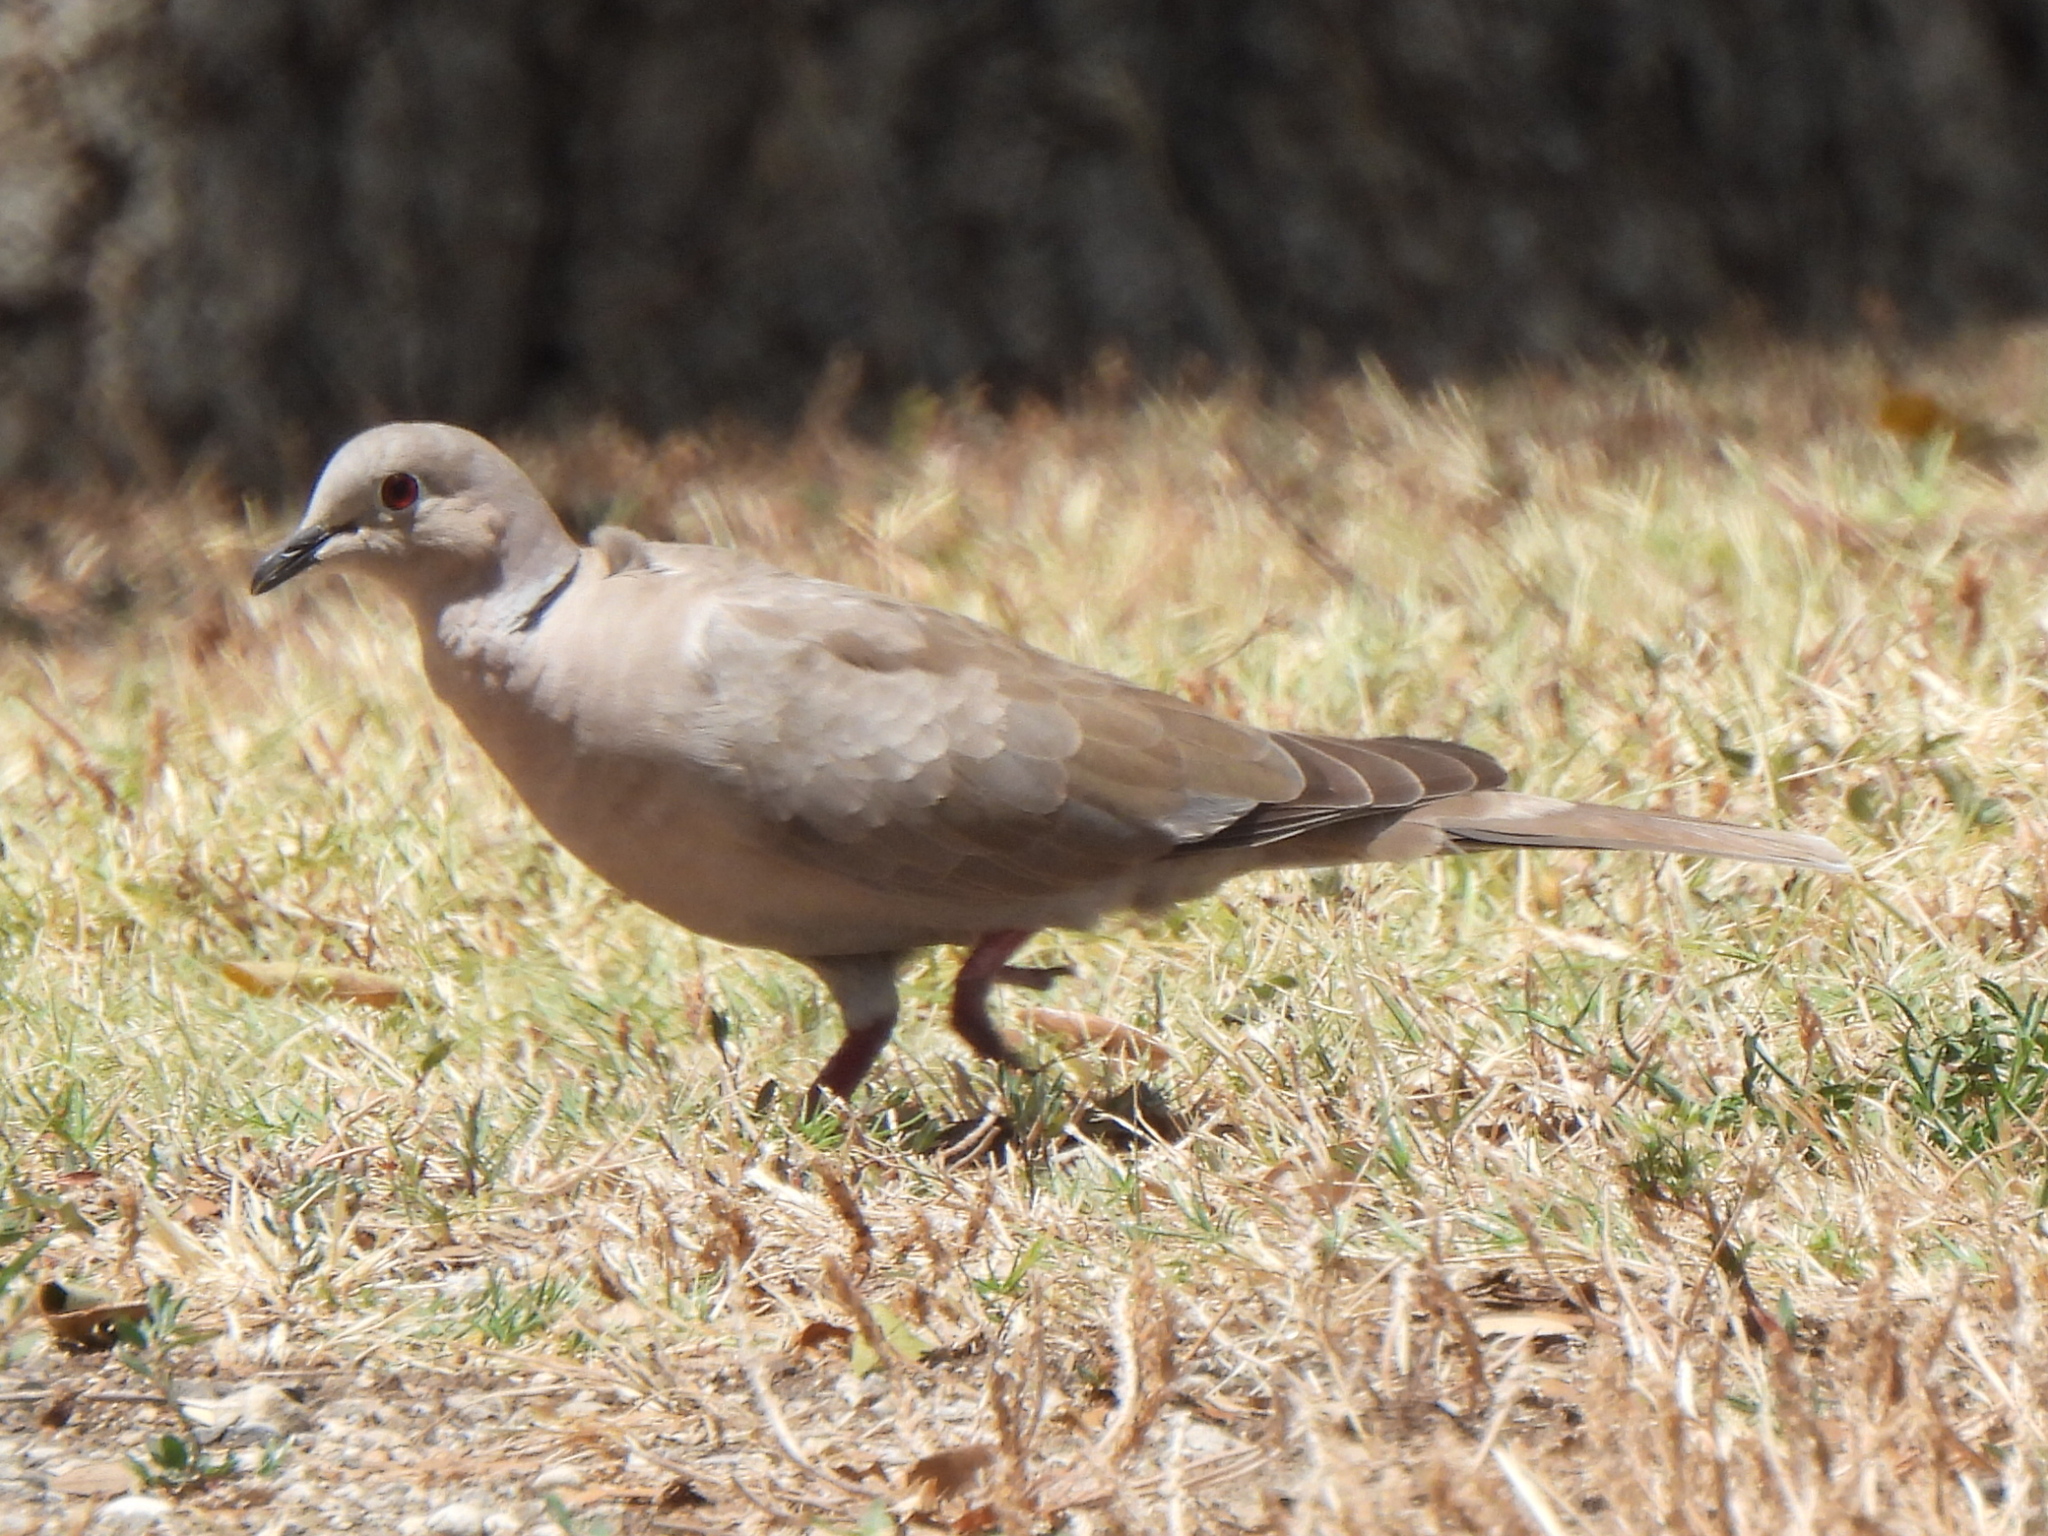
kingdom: Animalia
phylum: Chordata
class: Aves
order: Columbiformes
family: Columbidae
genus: Streptopelia
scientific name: Streptopelia decaocto
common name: Eurasian collared dove
